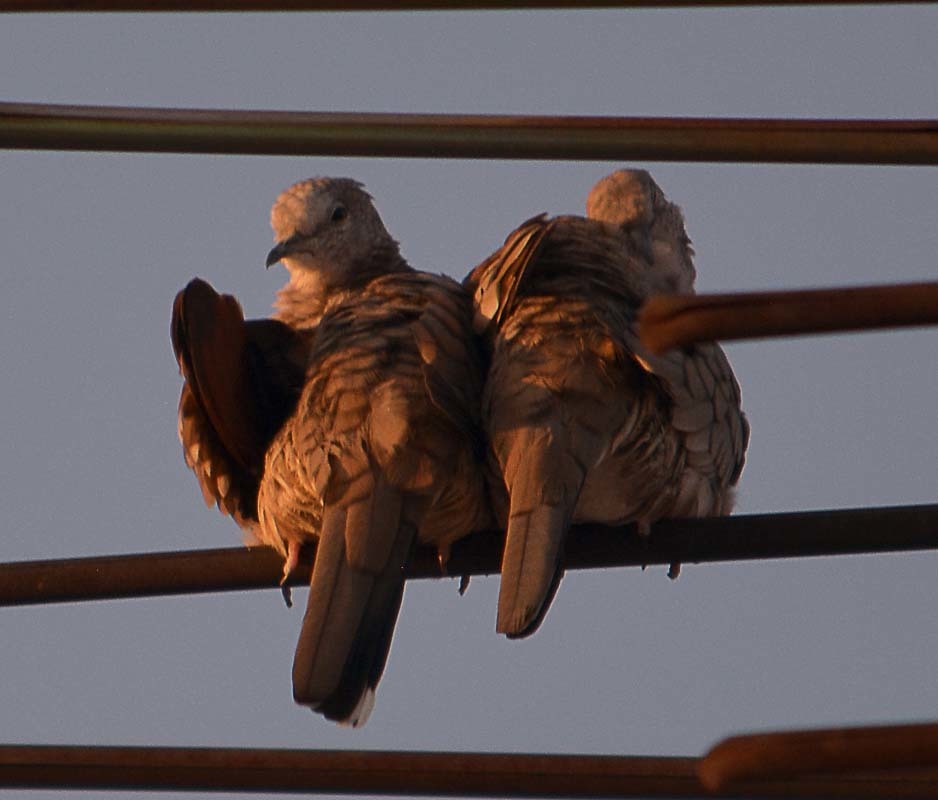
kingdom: Animalia
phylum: Chordata
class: Aves
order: Columbiformes
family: Columbidae
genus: Columbina
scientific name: Columbina inca
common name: Inca dove
